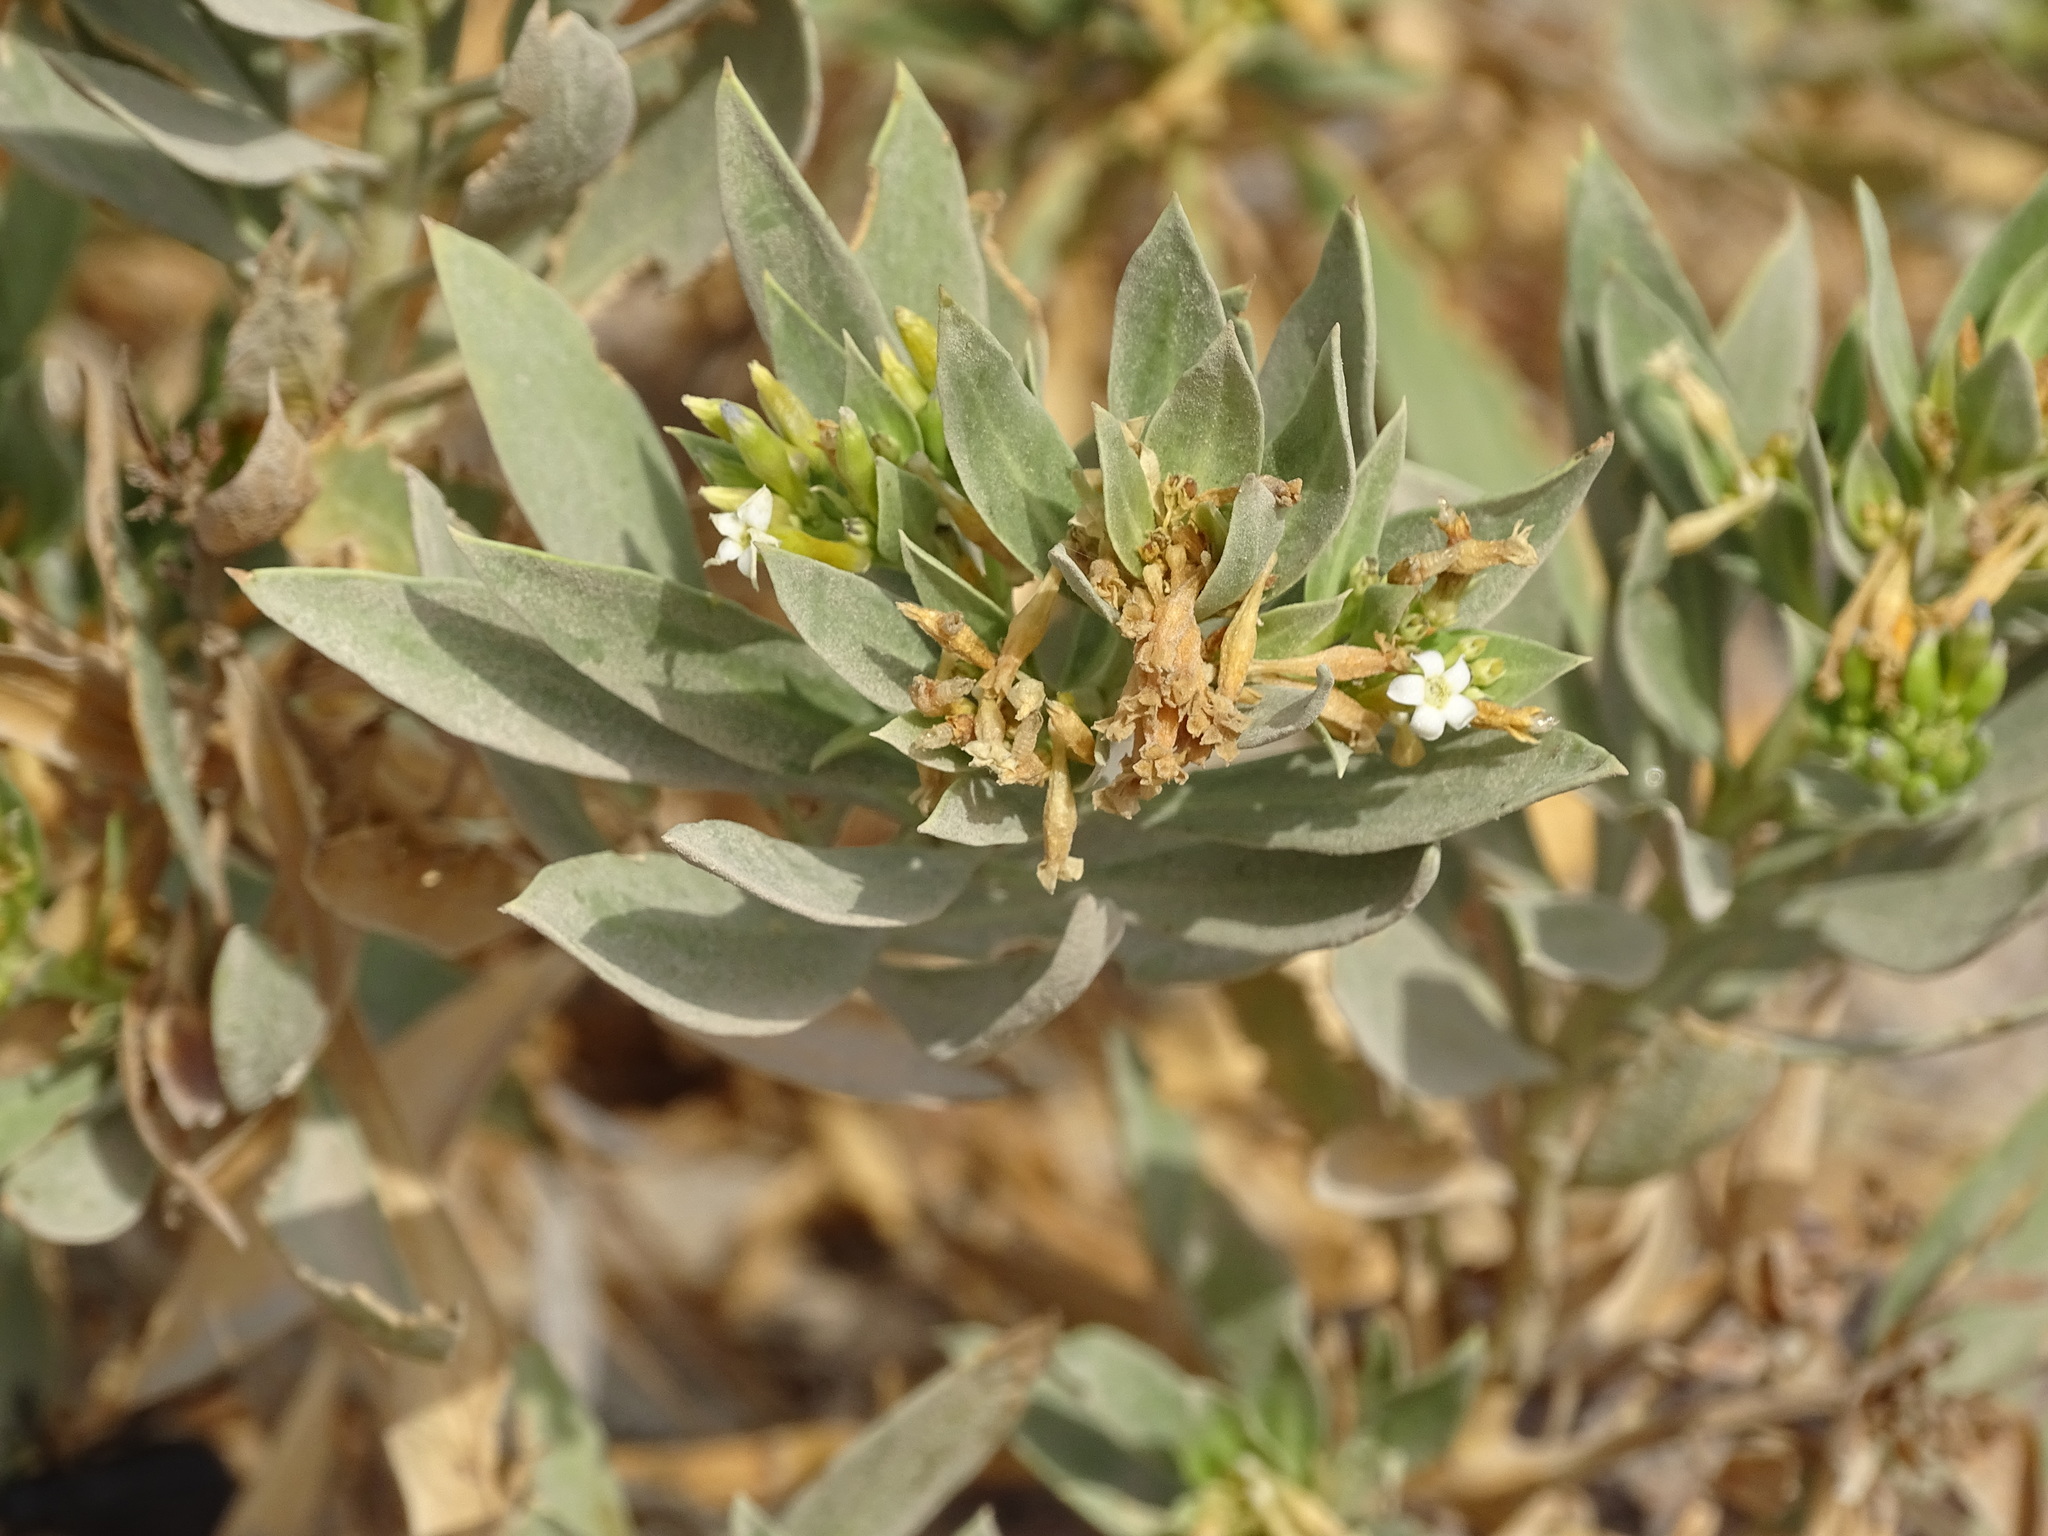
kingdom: Plantae
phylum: Tracheophyta
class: Magnoliopsida
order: Gentianales
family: Apocynaceae
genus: Rhazya
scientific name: Rhazya stricta
